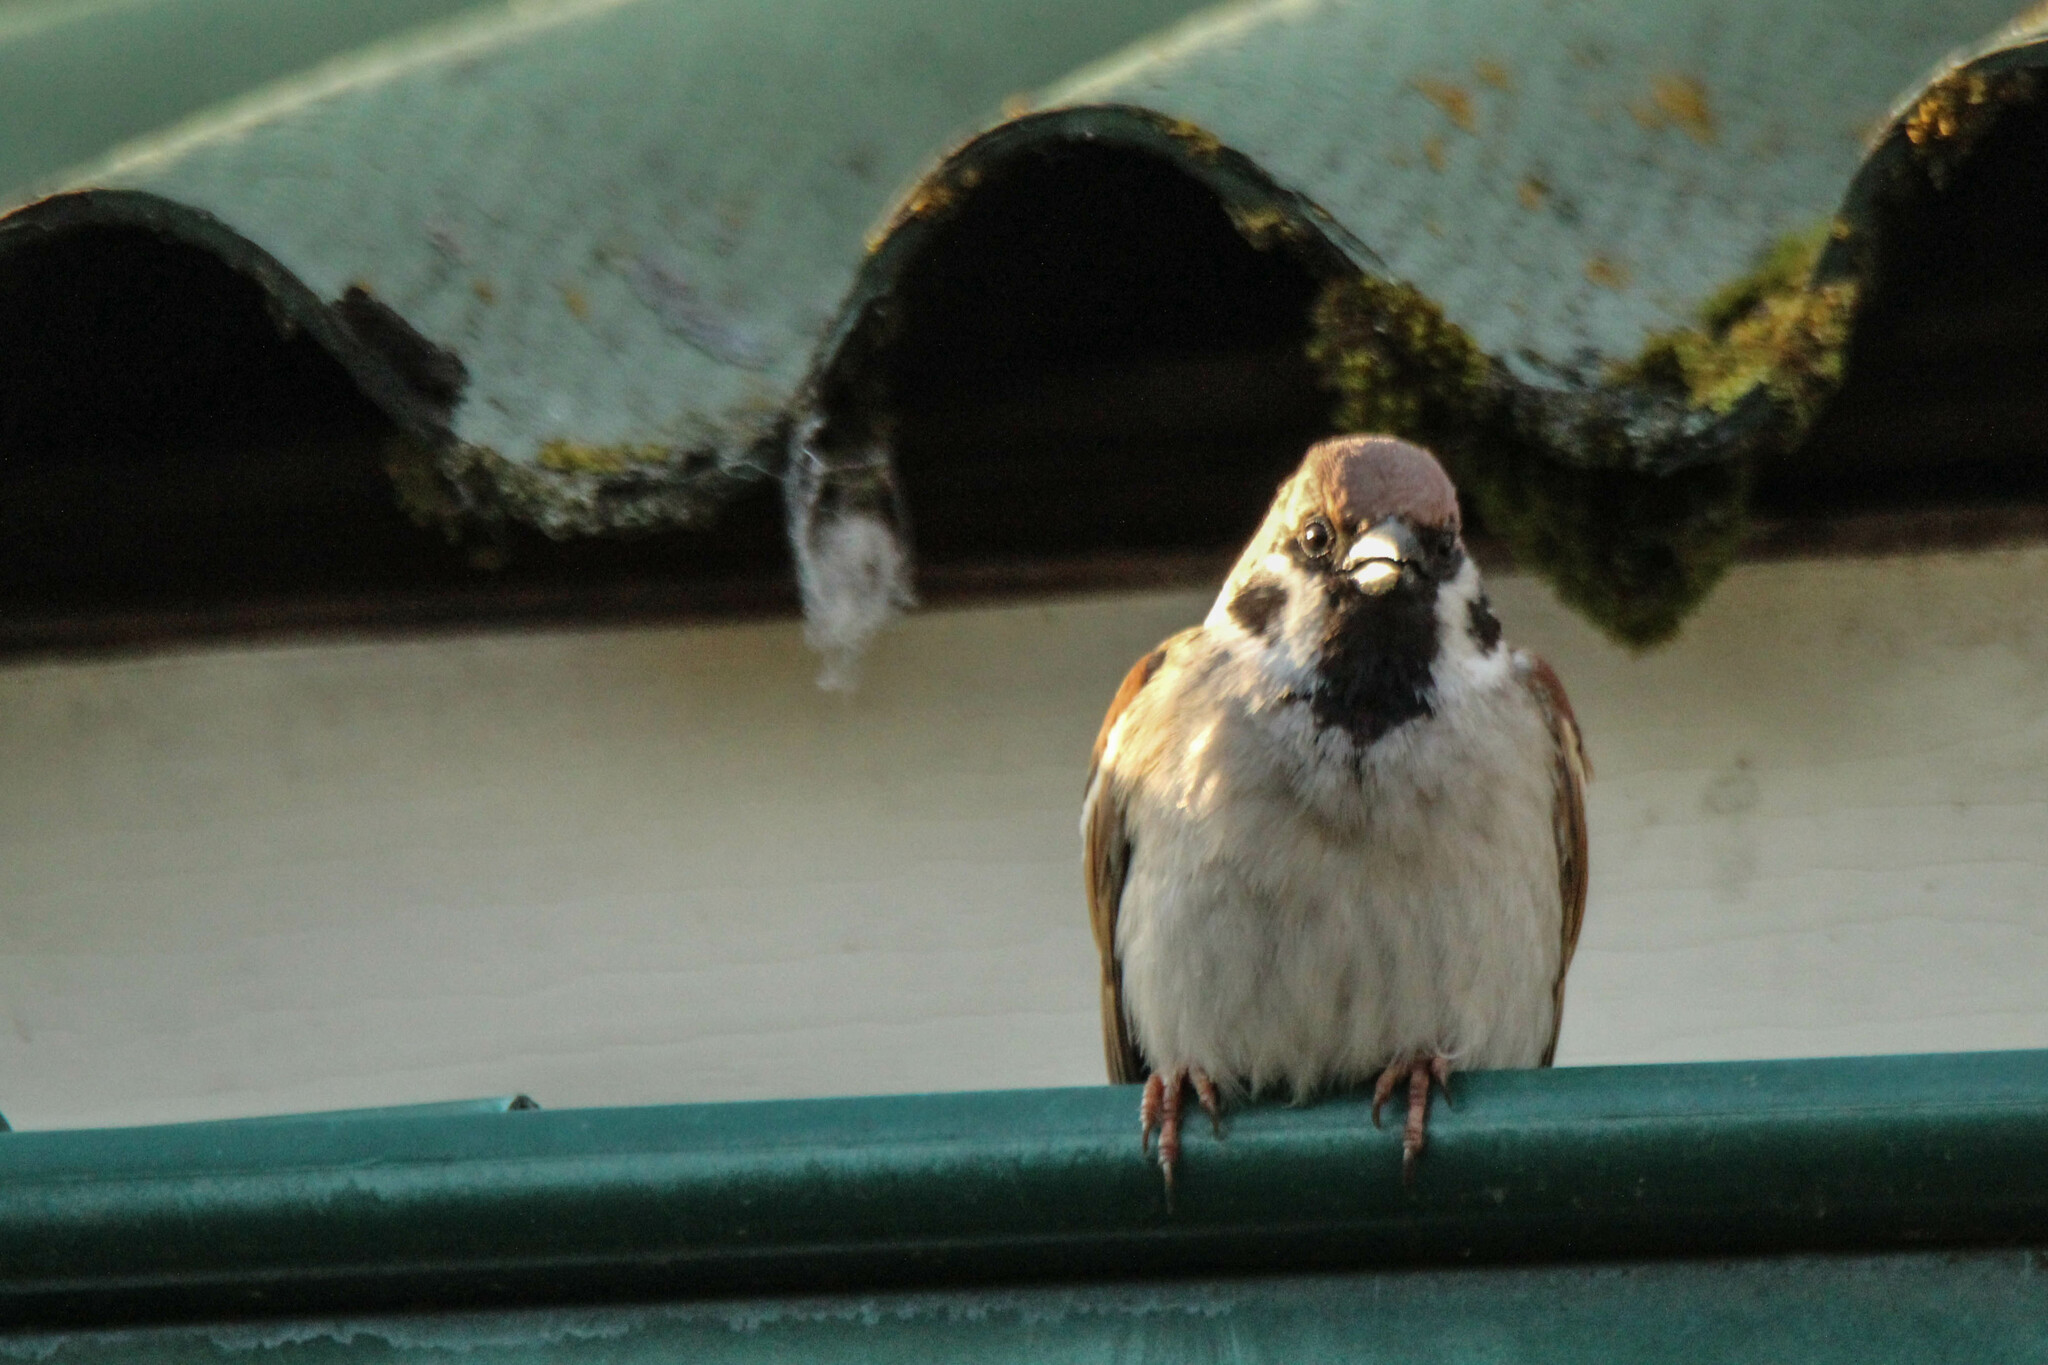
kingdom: Animalia
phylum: Chordata
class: Aves
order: Passeriformes
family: Passeridae
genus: Passer
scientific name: Passer montanus
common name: Eurasian tree sparrow
